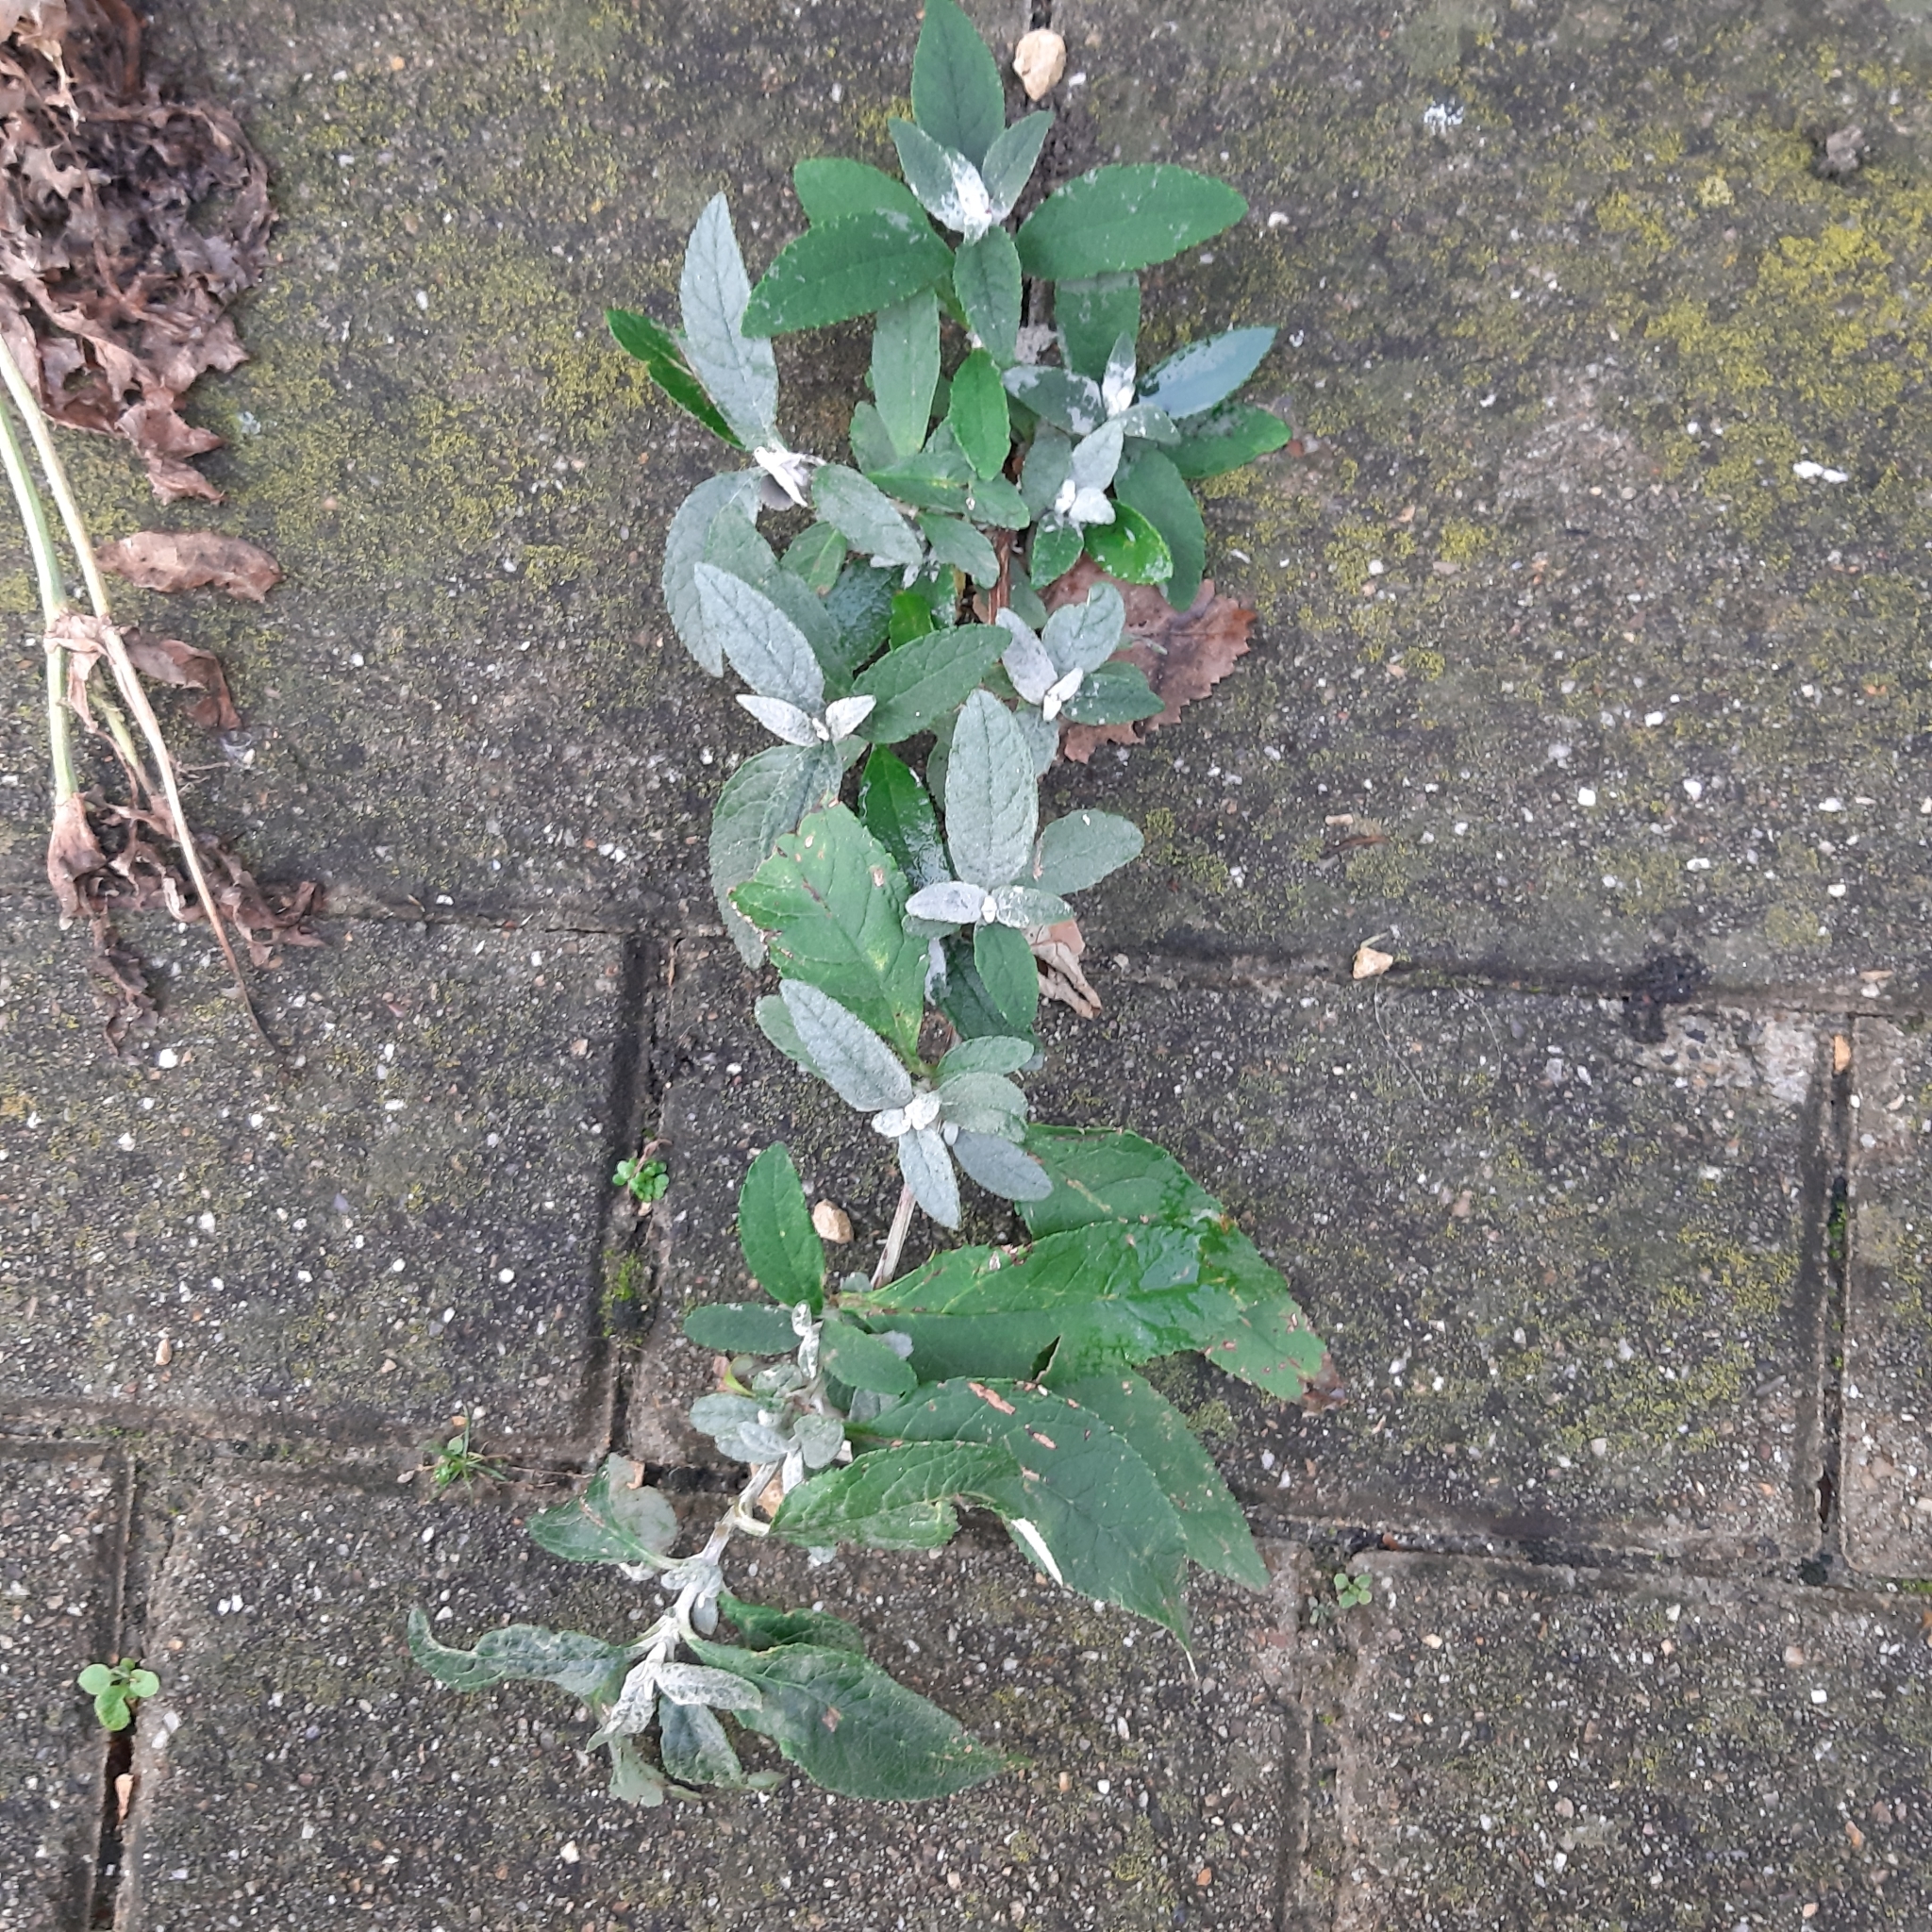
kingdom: Plantae
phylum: Tracheophyta
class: Magnoliopsida
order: Lamiales
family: Scrophulariaceae
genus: Buddleja
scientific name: Buddleja davidii
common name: Butterfly-bush
